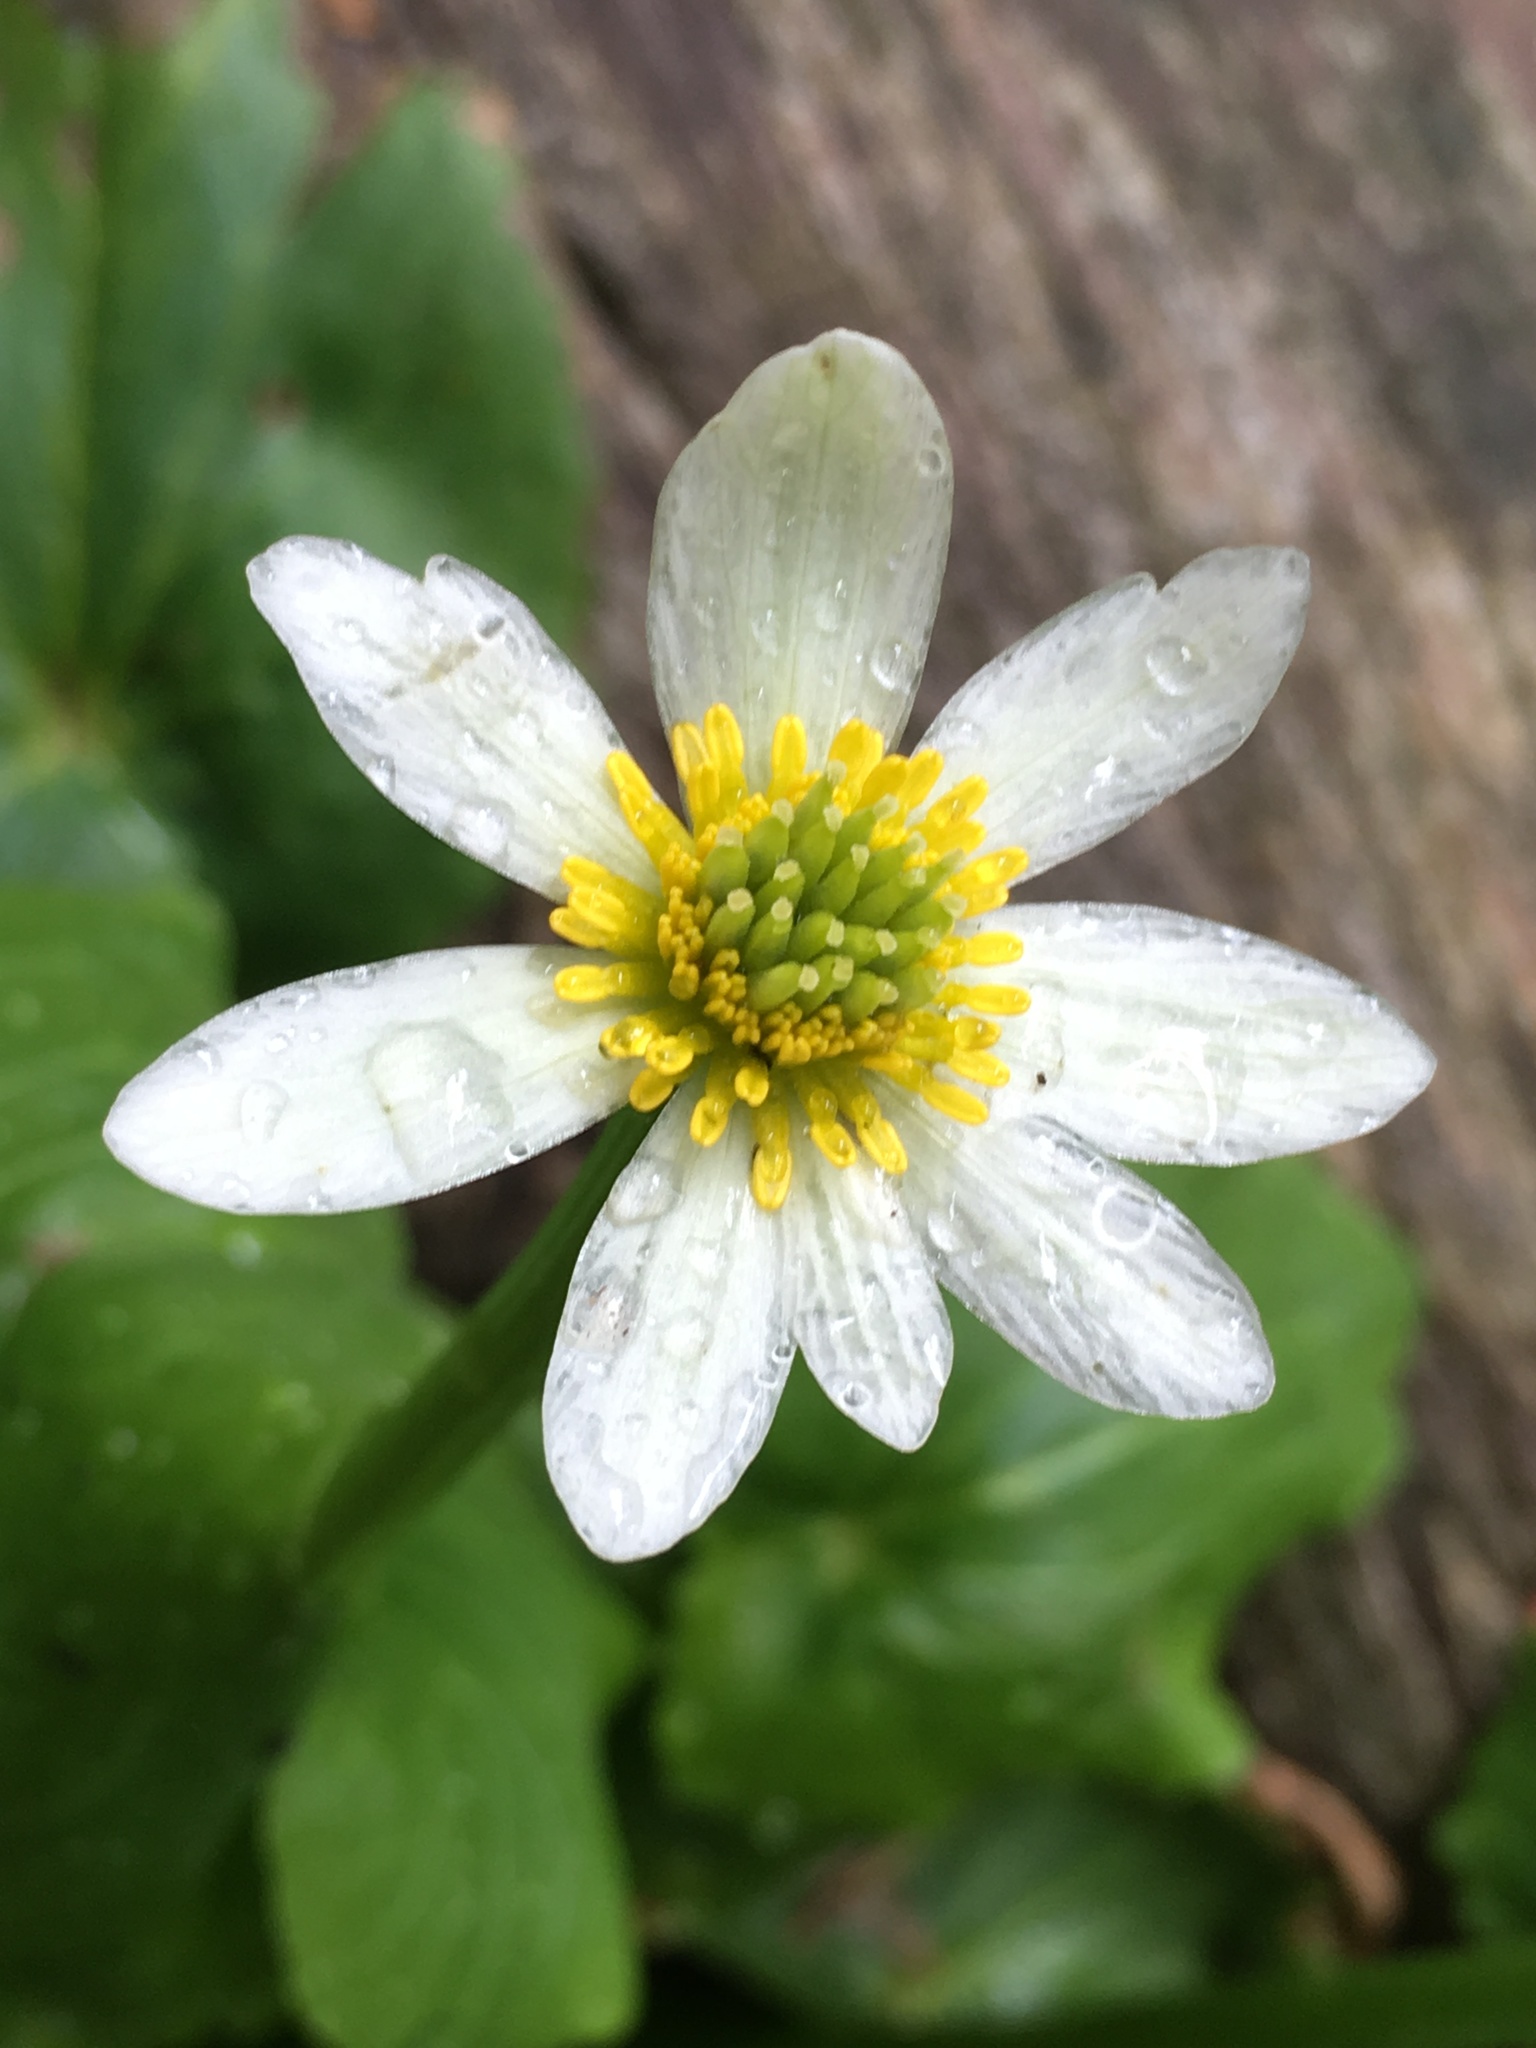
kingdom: Plantae
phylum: Tracheophyta
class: Magnoliopsida
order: Ranunculales
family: Ranunculaceae
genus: Caltha
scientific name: Caltha leptosepala
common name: Elkslip
